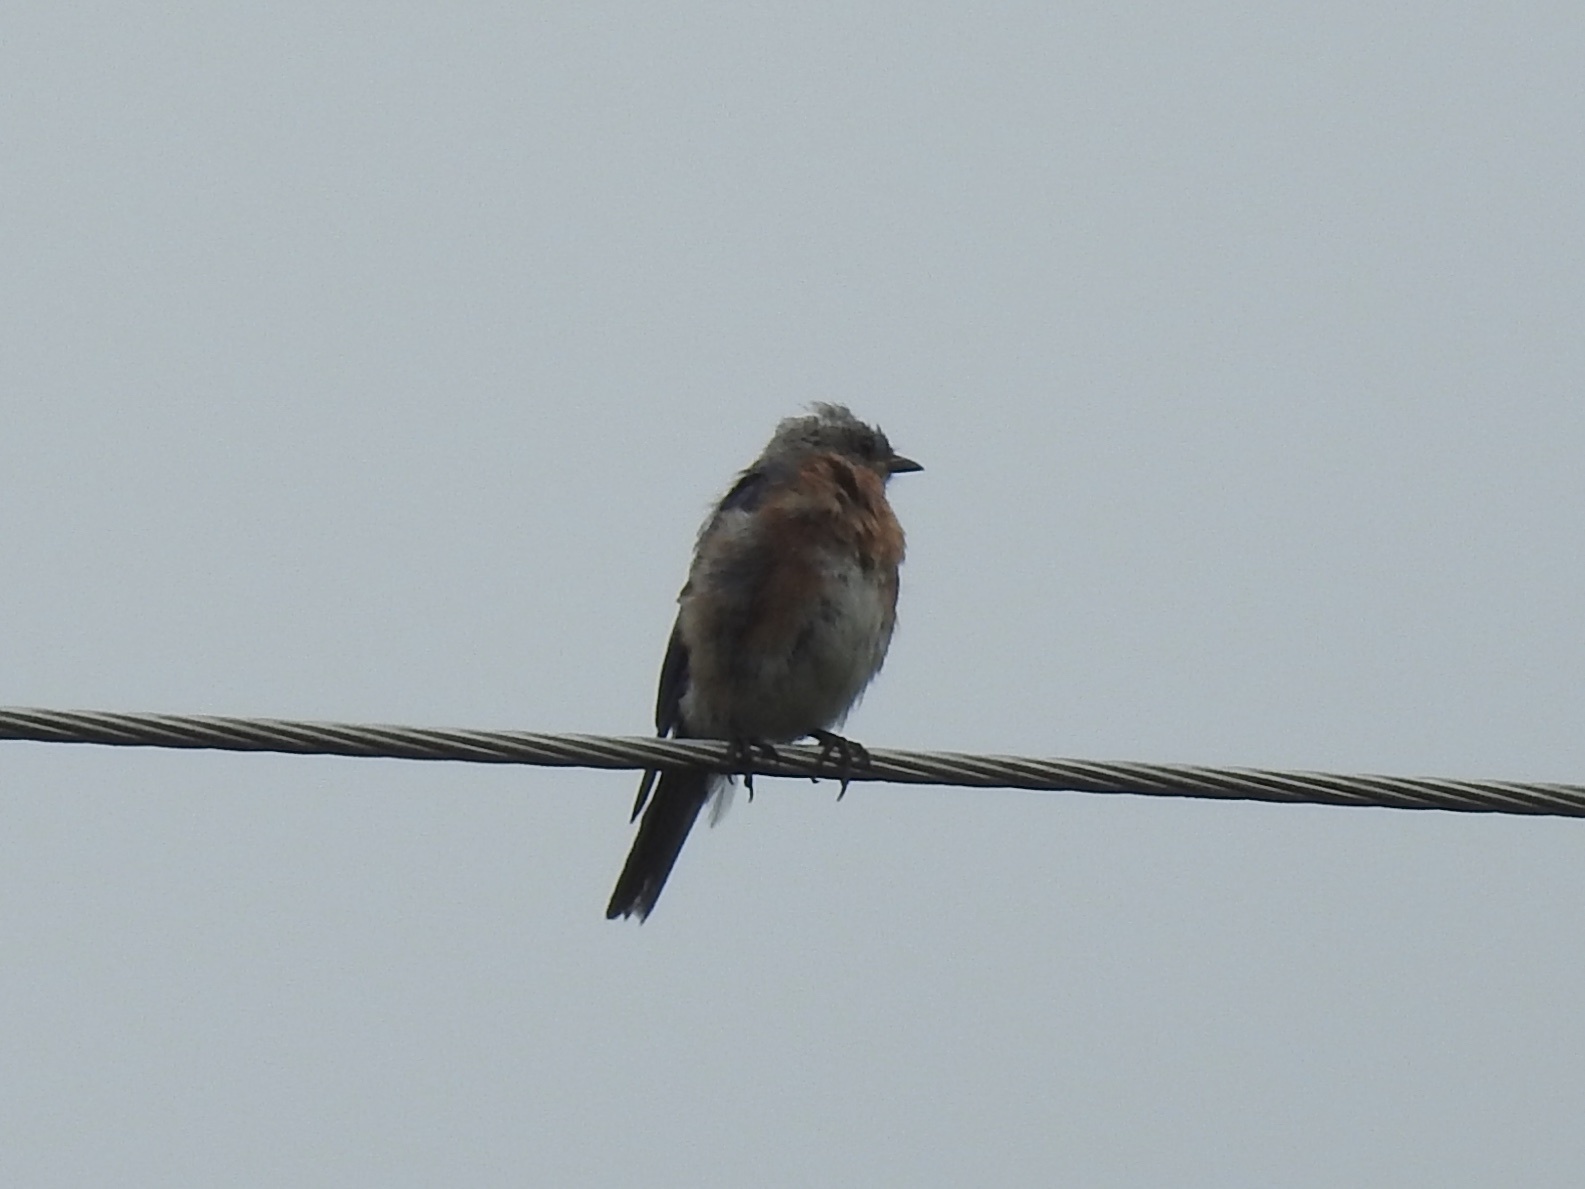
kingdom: Animalia
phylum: Chordata
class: Aves
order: Passeriformes
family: Turdidae
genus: Sialia
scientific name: Sialia sialis
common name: Eastern bluebird
